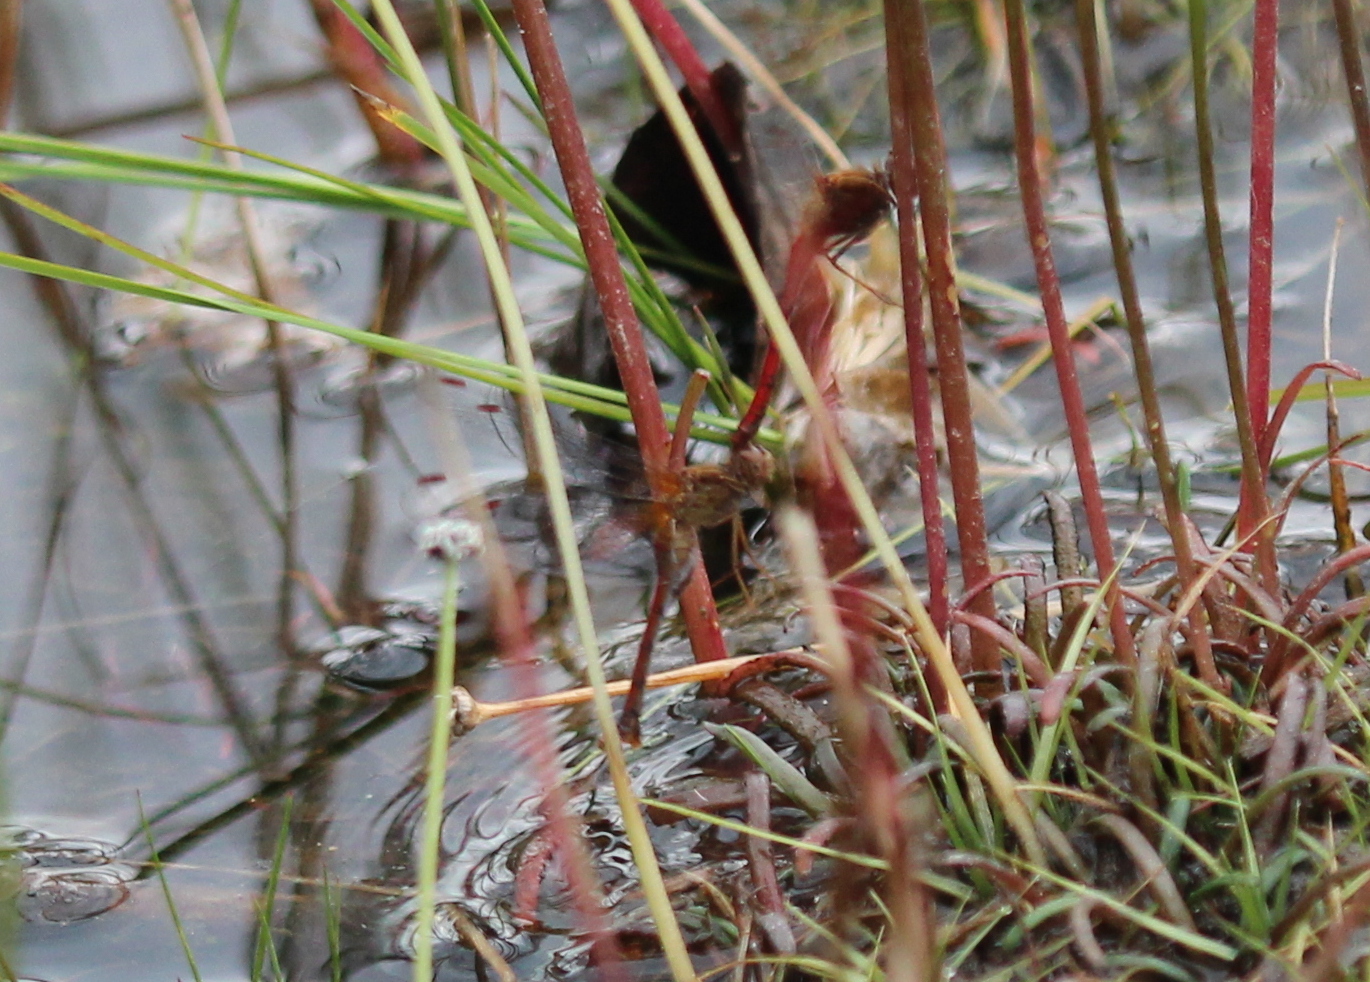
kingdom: Animalia
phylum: Arthropoda
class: Insecta
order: Odonata
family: Libellulidae
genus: Sympetrum
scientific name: Sympetrum vicinum
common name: Autumn meadowhawk
